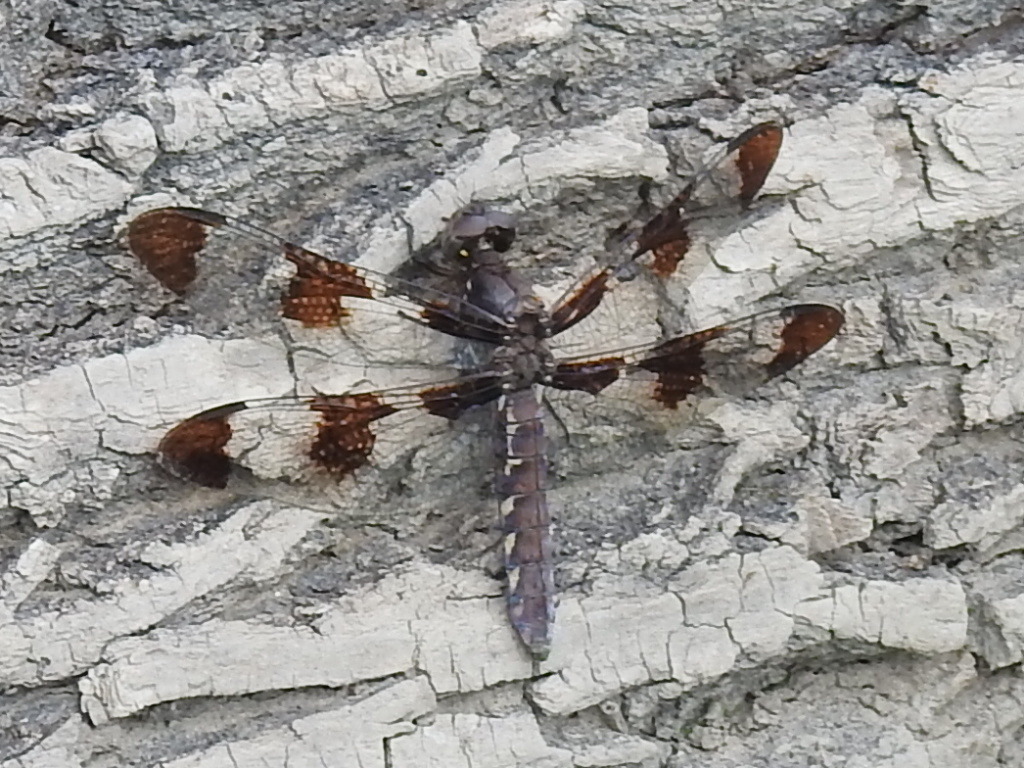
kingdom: Animalia
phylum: Arthropoda
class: Insecta
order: Odonata
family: Libellulidae
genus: Plathemis
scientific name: Plathemis lydia
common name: Common whitetail
